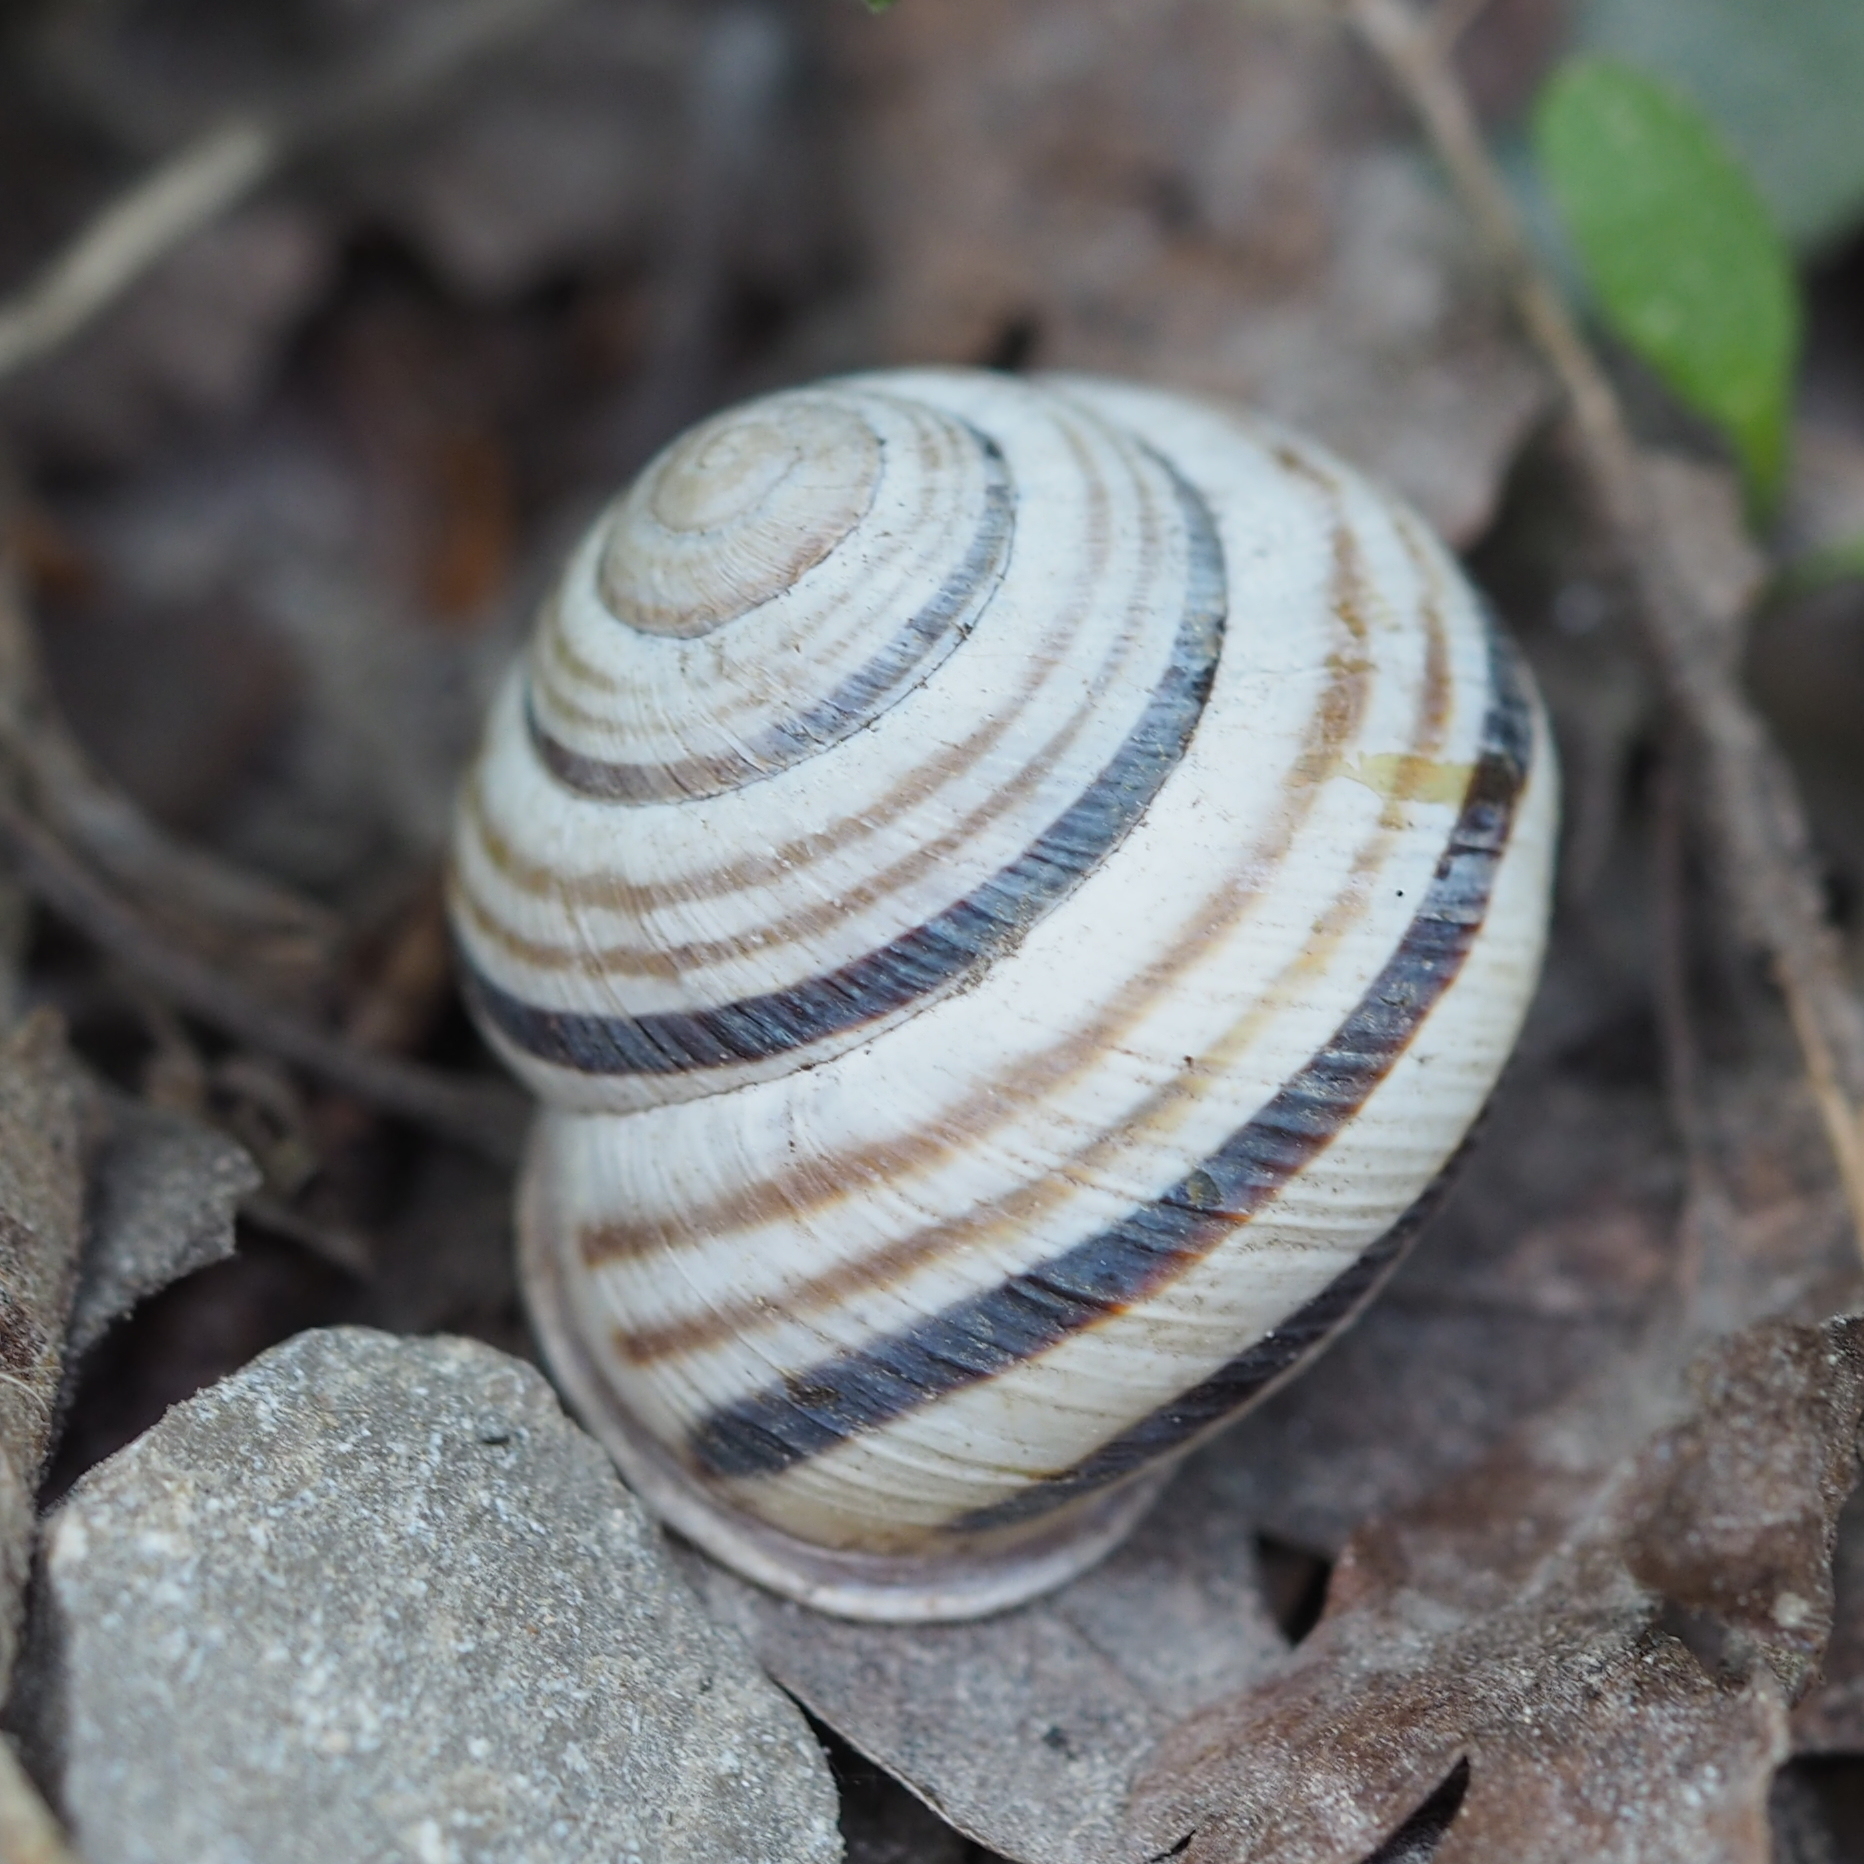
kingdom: Animalia
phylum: Mollusca
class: Gastropoda
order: Stylommatophora
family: Helicidae
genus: Caucasotachea
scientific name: Caucasotachea vindobonensis
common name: European helicid land snail
